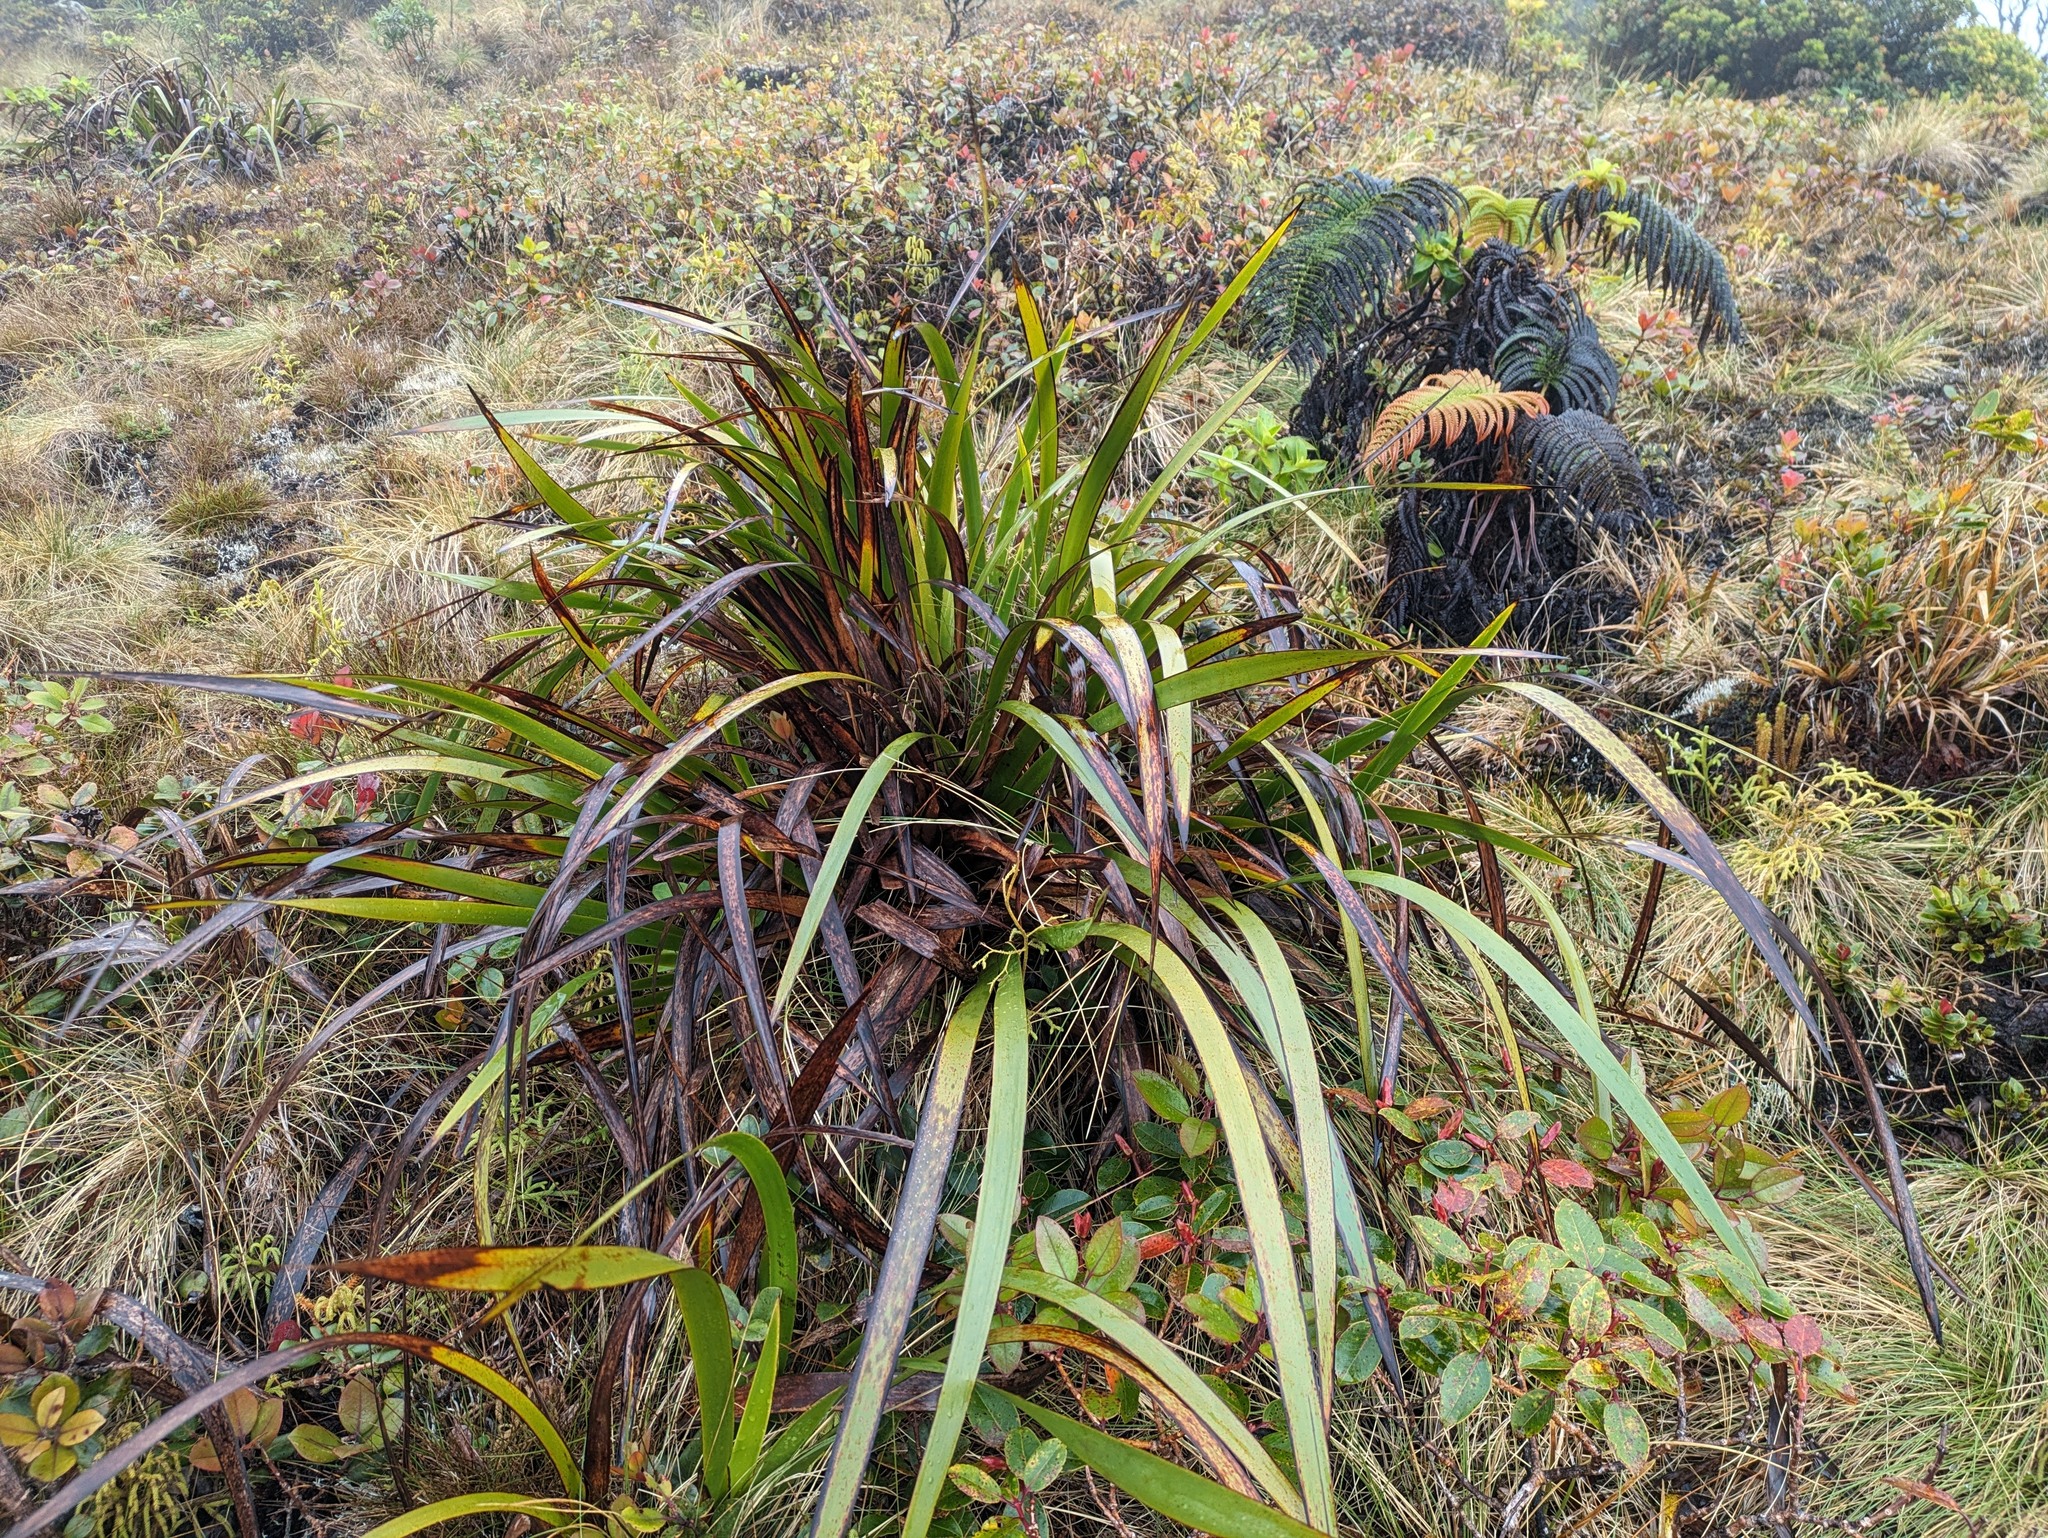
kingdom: Plantae
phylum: Tracheophyta
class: Liliopsida
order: Poales
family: Cyperaceae
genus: Machaerina
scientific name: Machaerina angustifolia
